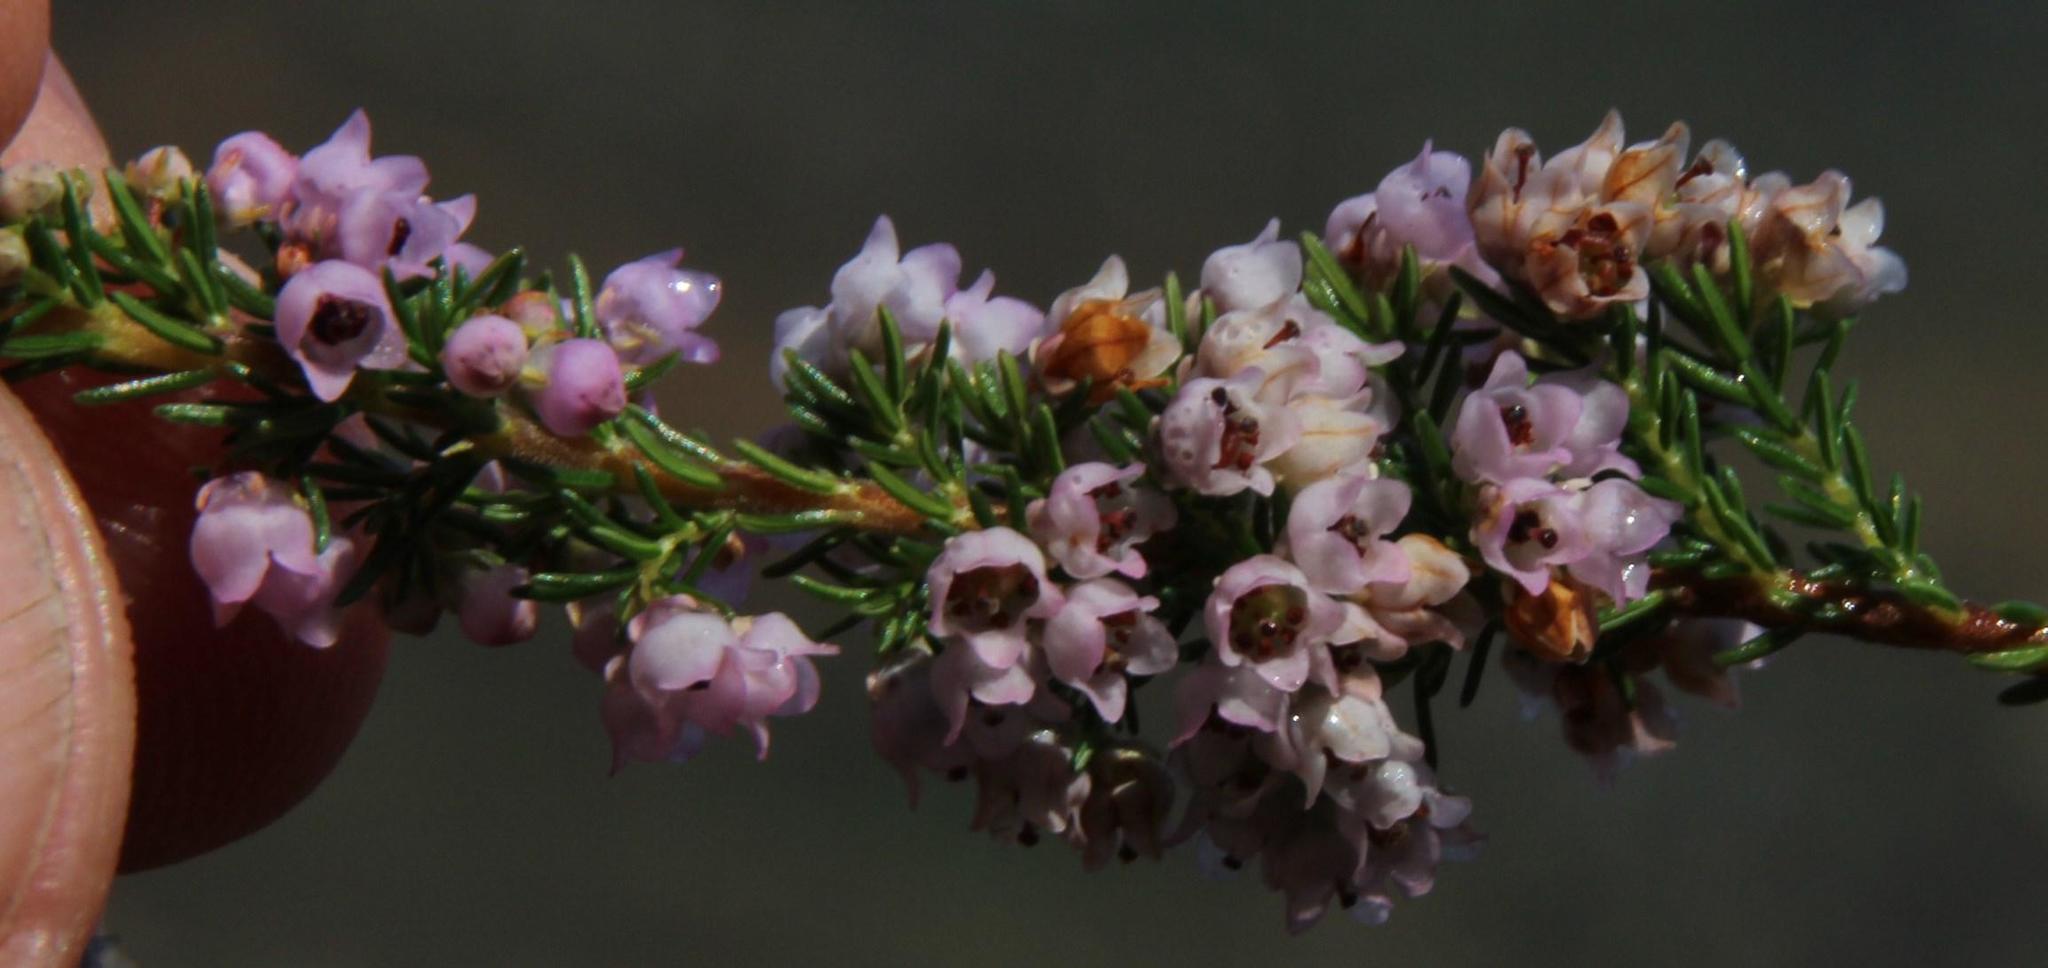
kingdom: Plantae
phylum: Tracheophyta
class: Magnoliopsida
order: Ericales
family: Ericaceae
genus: Erica
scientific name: Erica mauritanica
